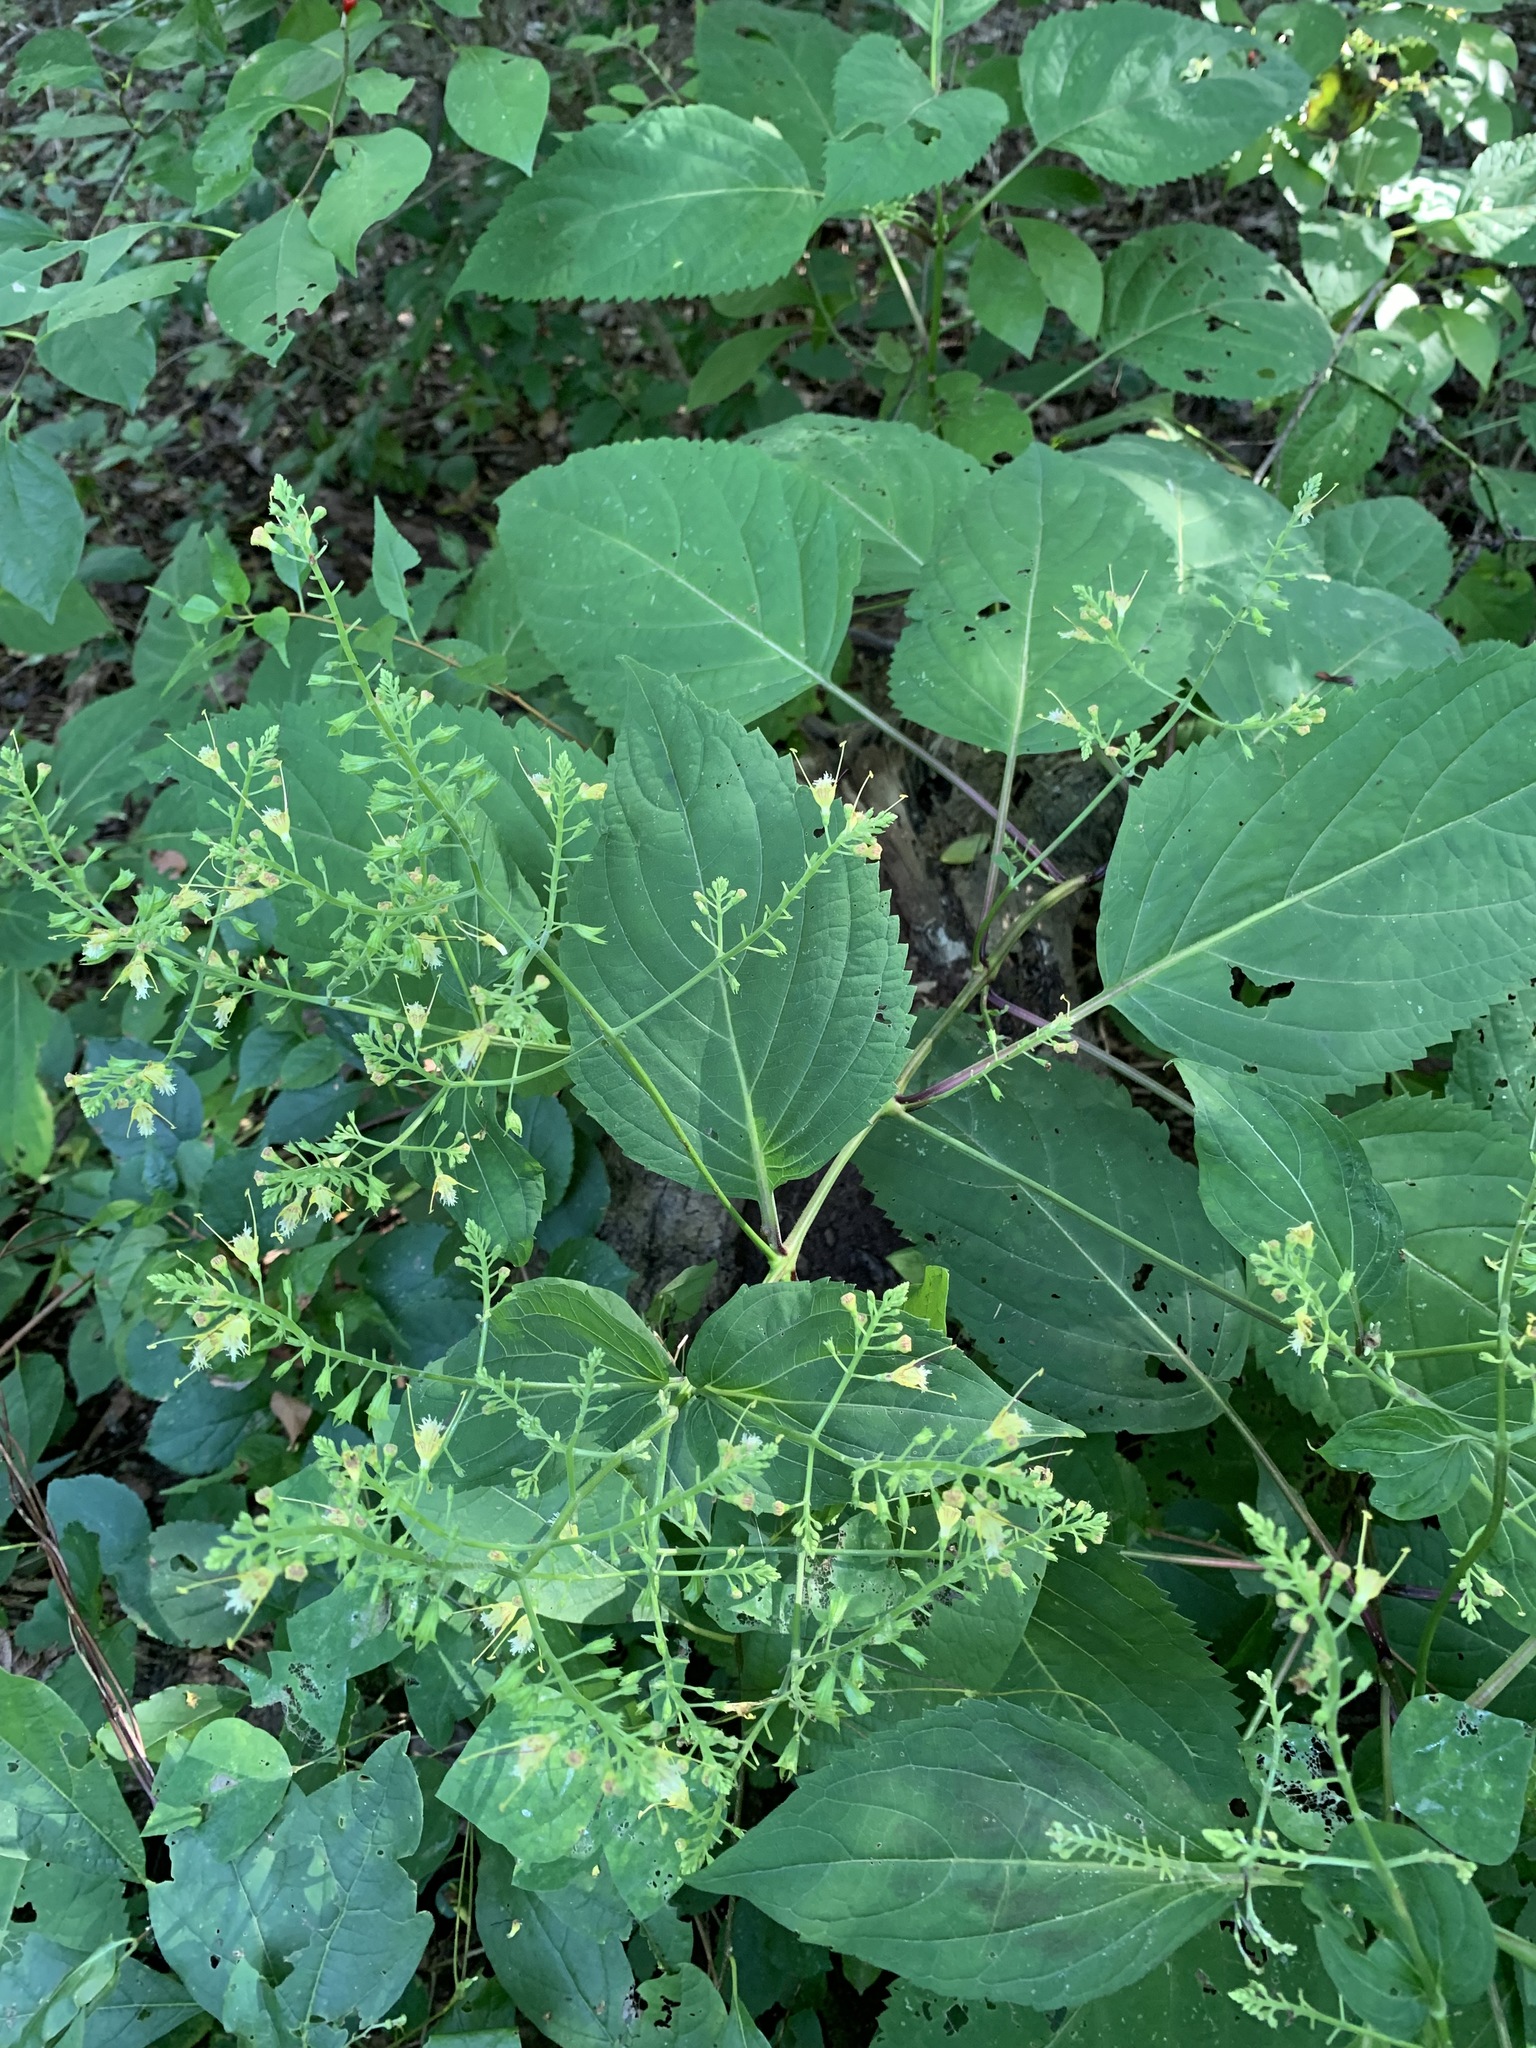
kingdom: Plantae
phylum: Tracheophyta
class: Magnoliopsida
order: Lamiales
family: Lamiaceae
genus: Collinsonia
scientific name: Collinsonia canadensis
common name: Northern horsebalm
